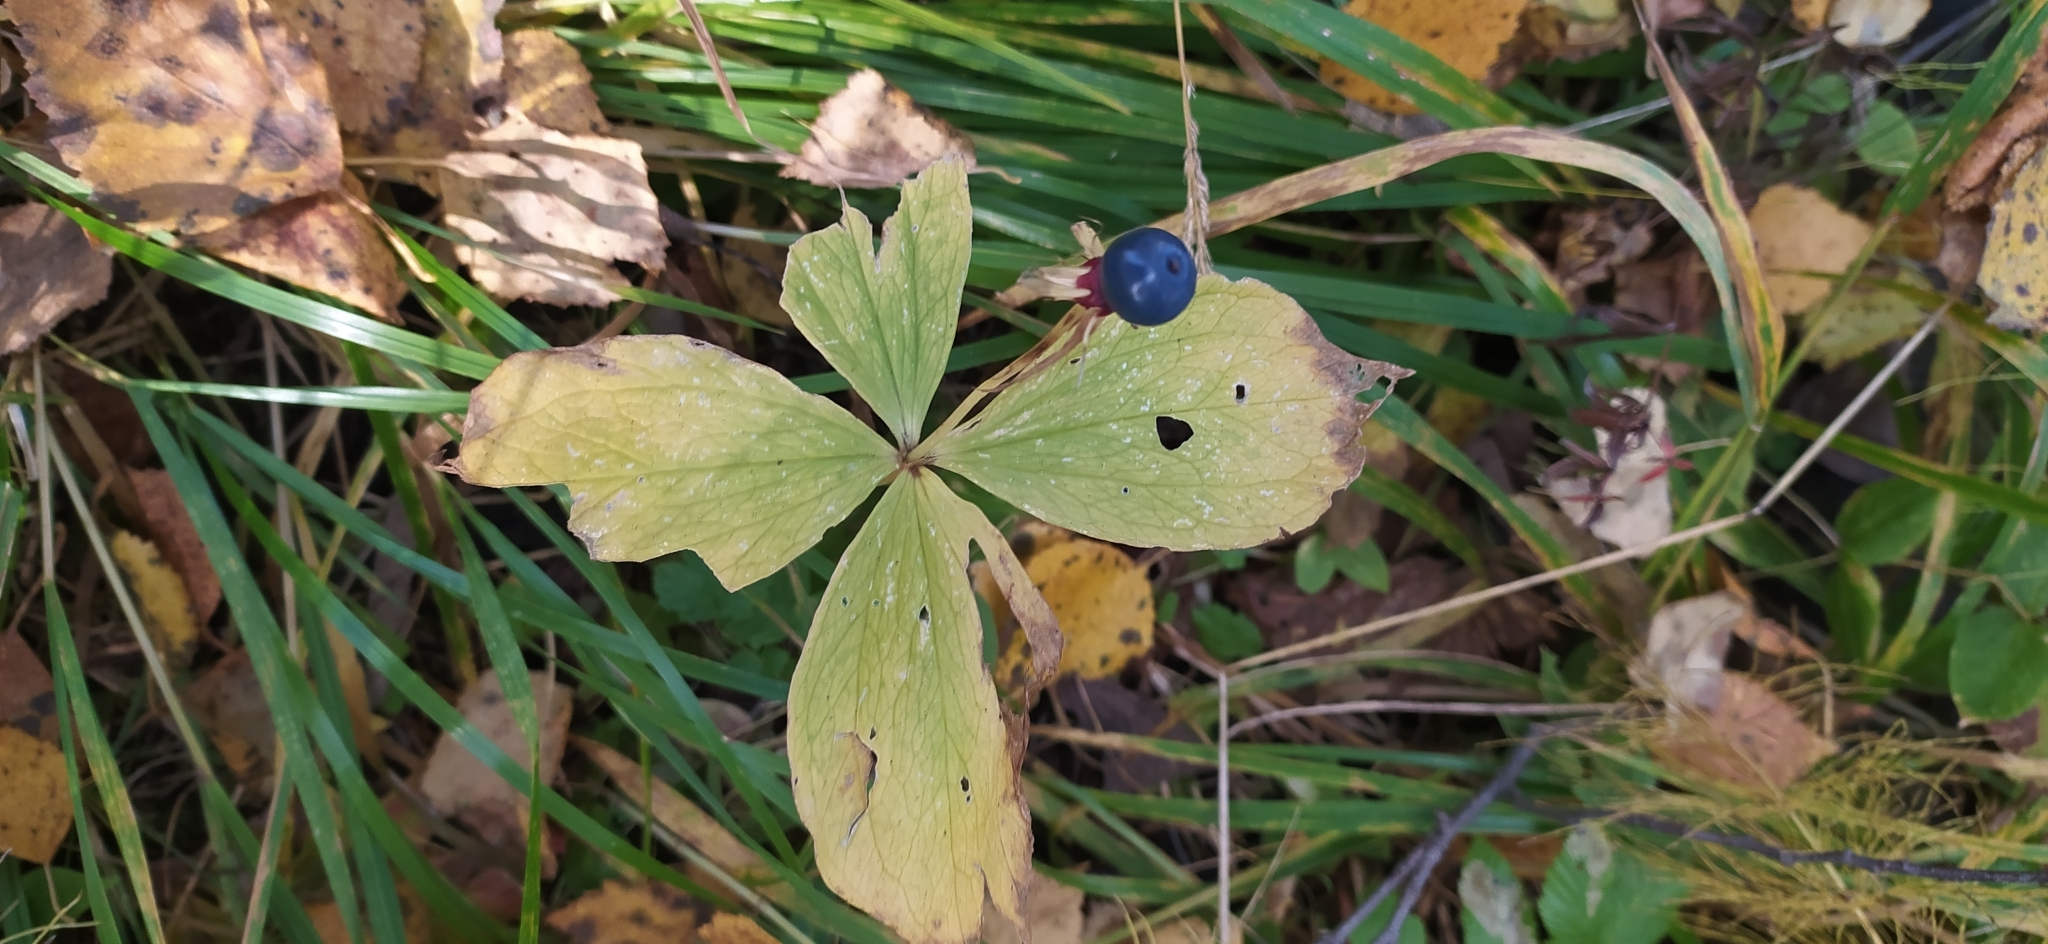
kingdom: Plantae
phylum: Tracheophyta
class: Liliopsida
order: Liliales
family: Melanthiaceae
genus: Paris
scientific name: Paris quadrifolia
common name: Herb-paris
